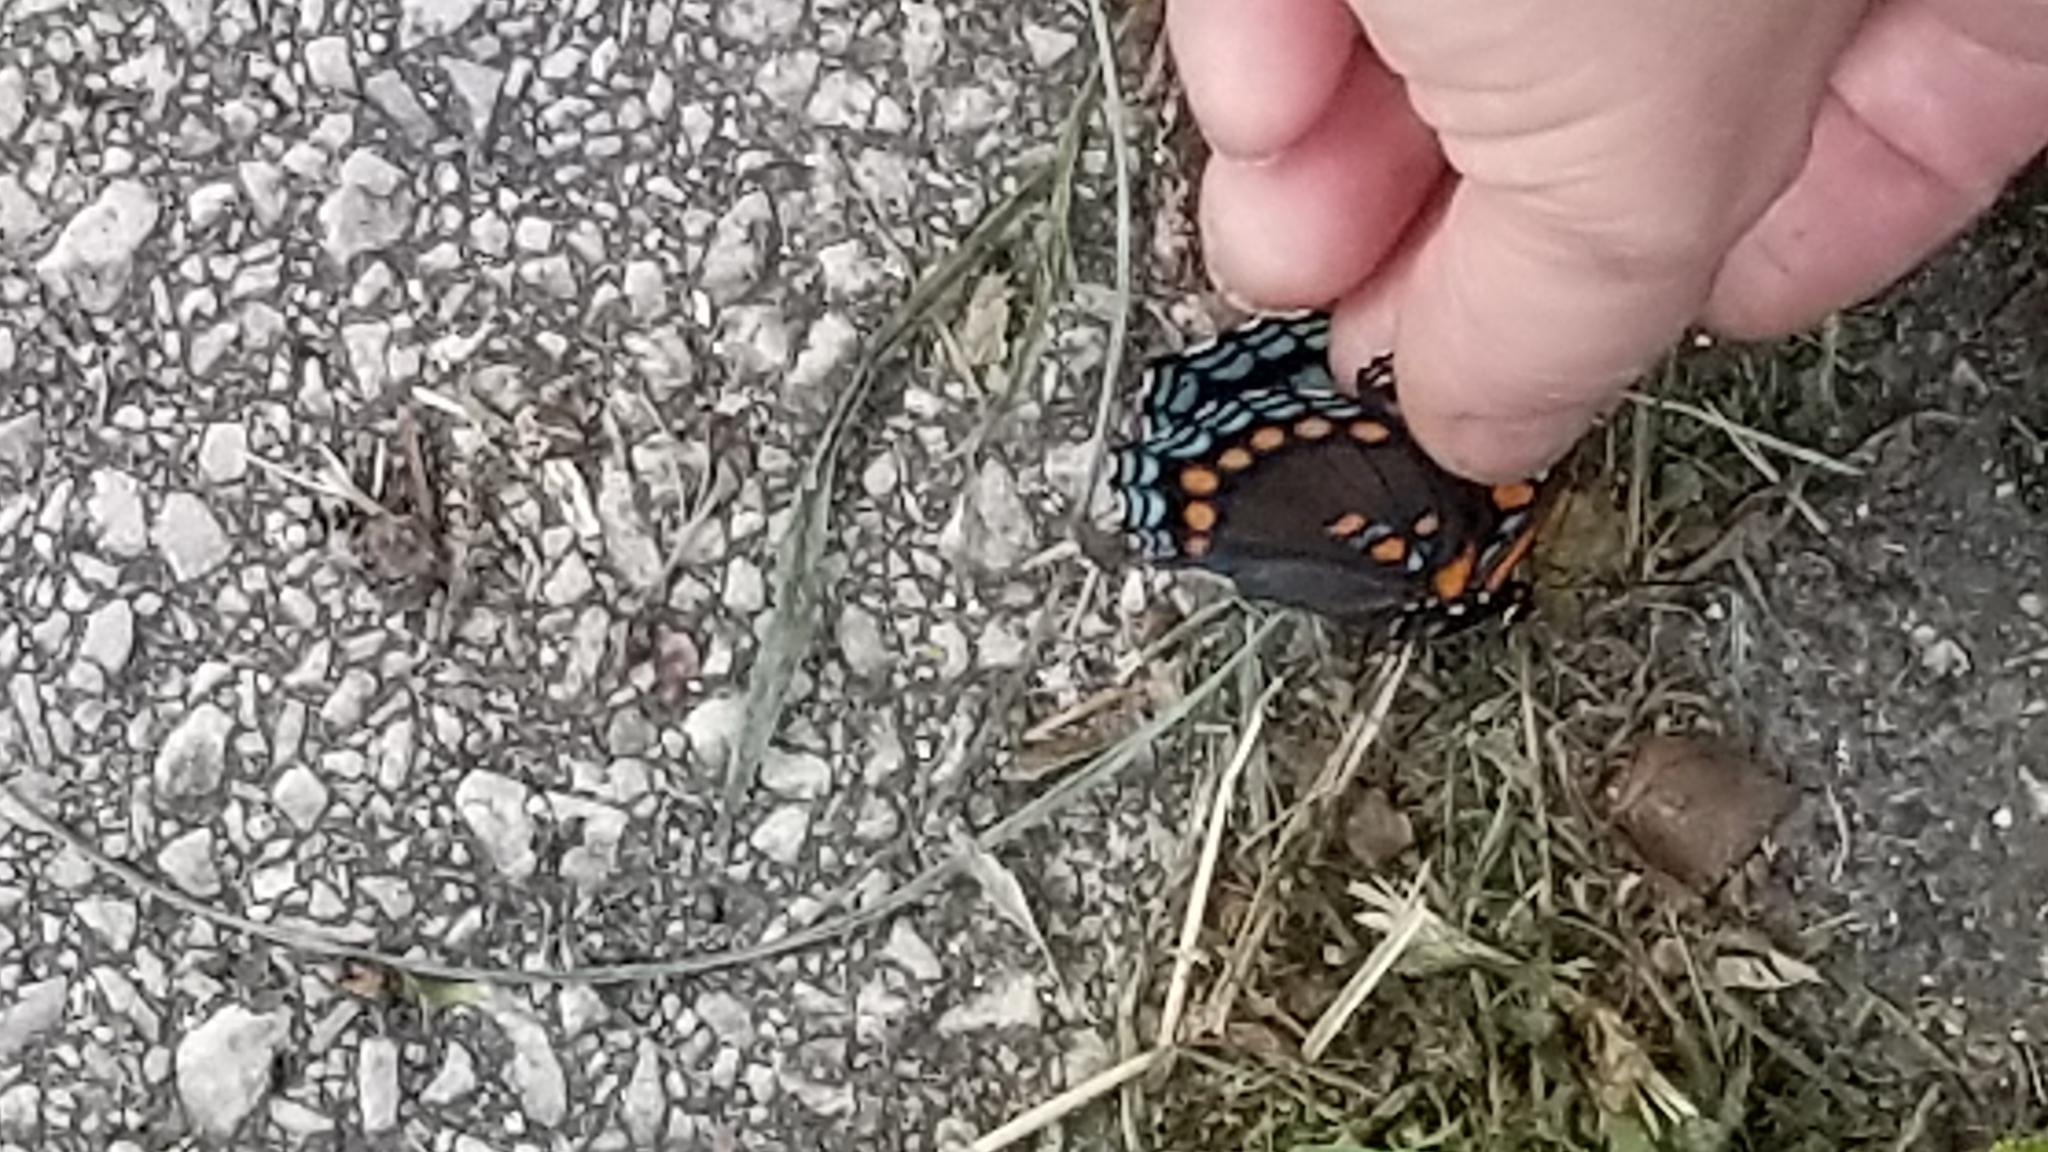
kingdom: Animalia
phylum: Arthropoda
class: Insecta
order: Lepidoptera
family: Nymphalidae
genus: Limenitis
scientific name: Limenitis astyanax
